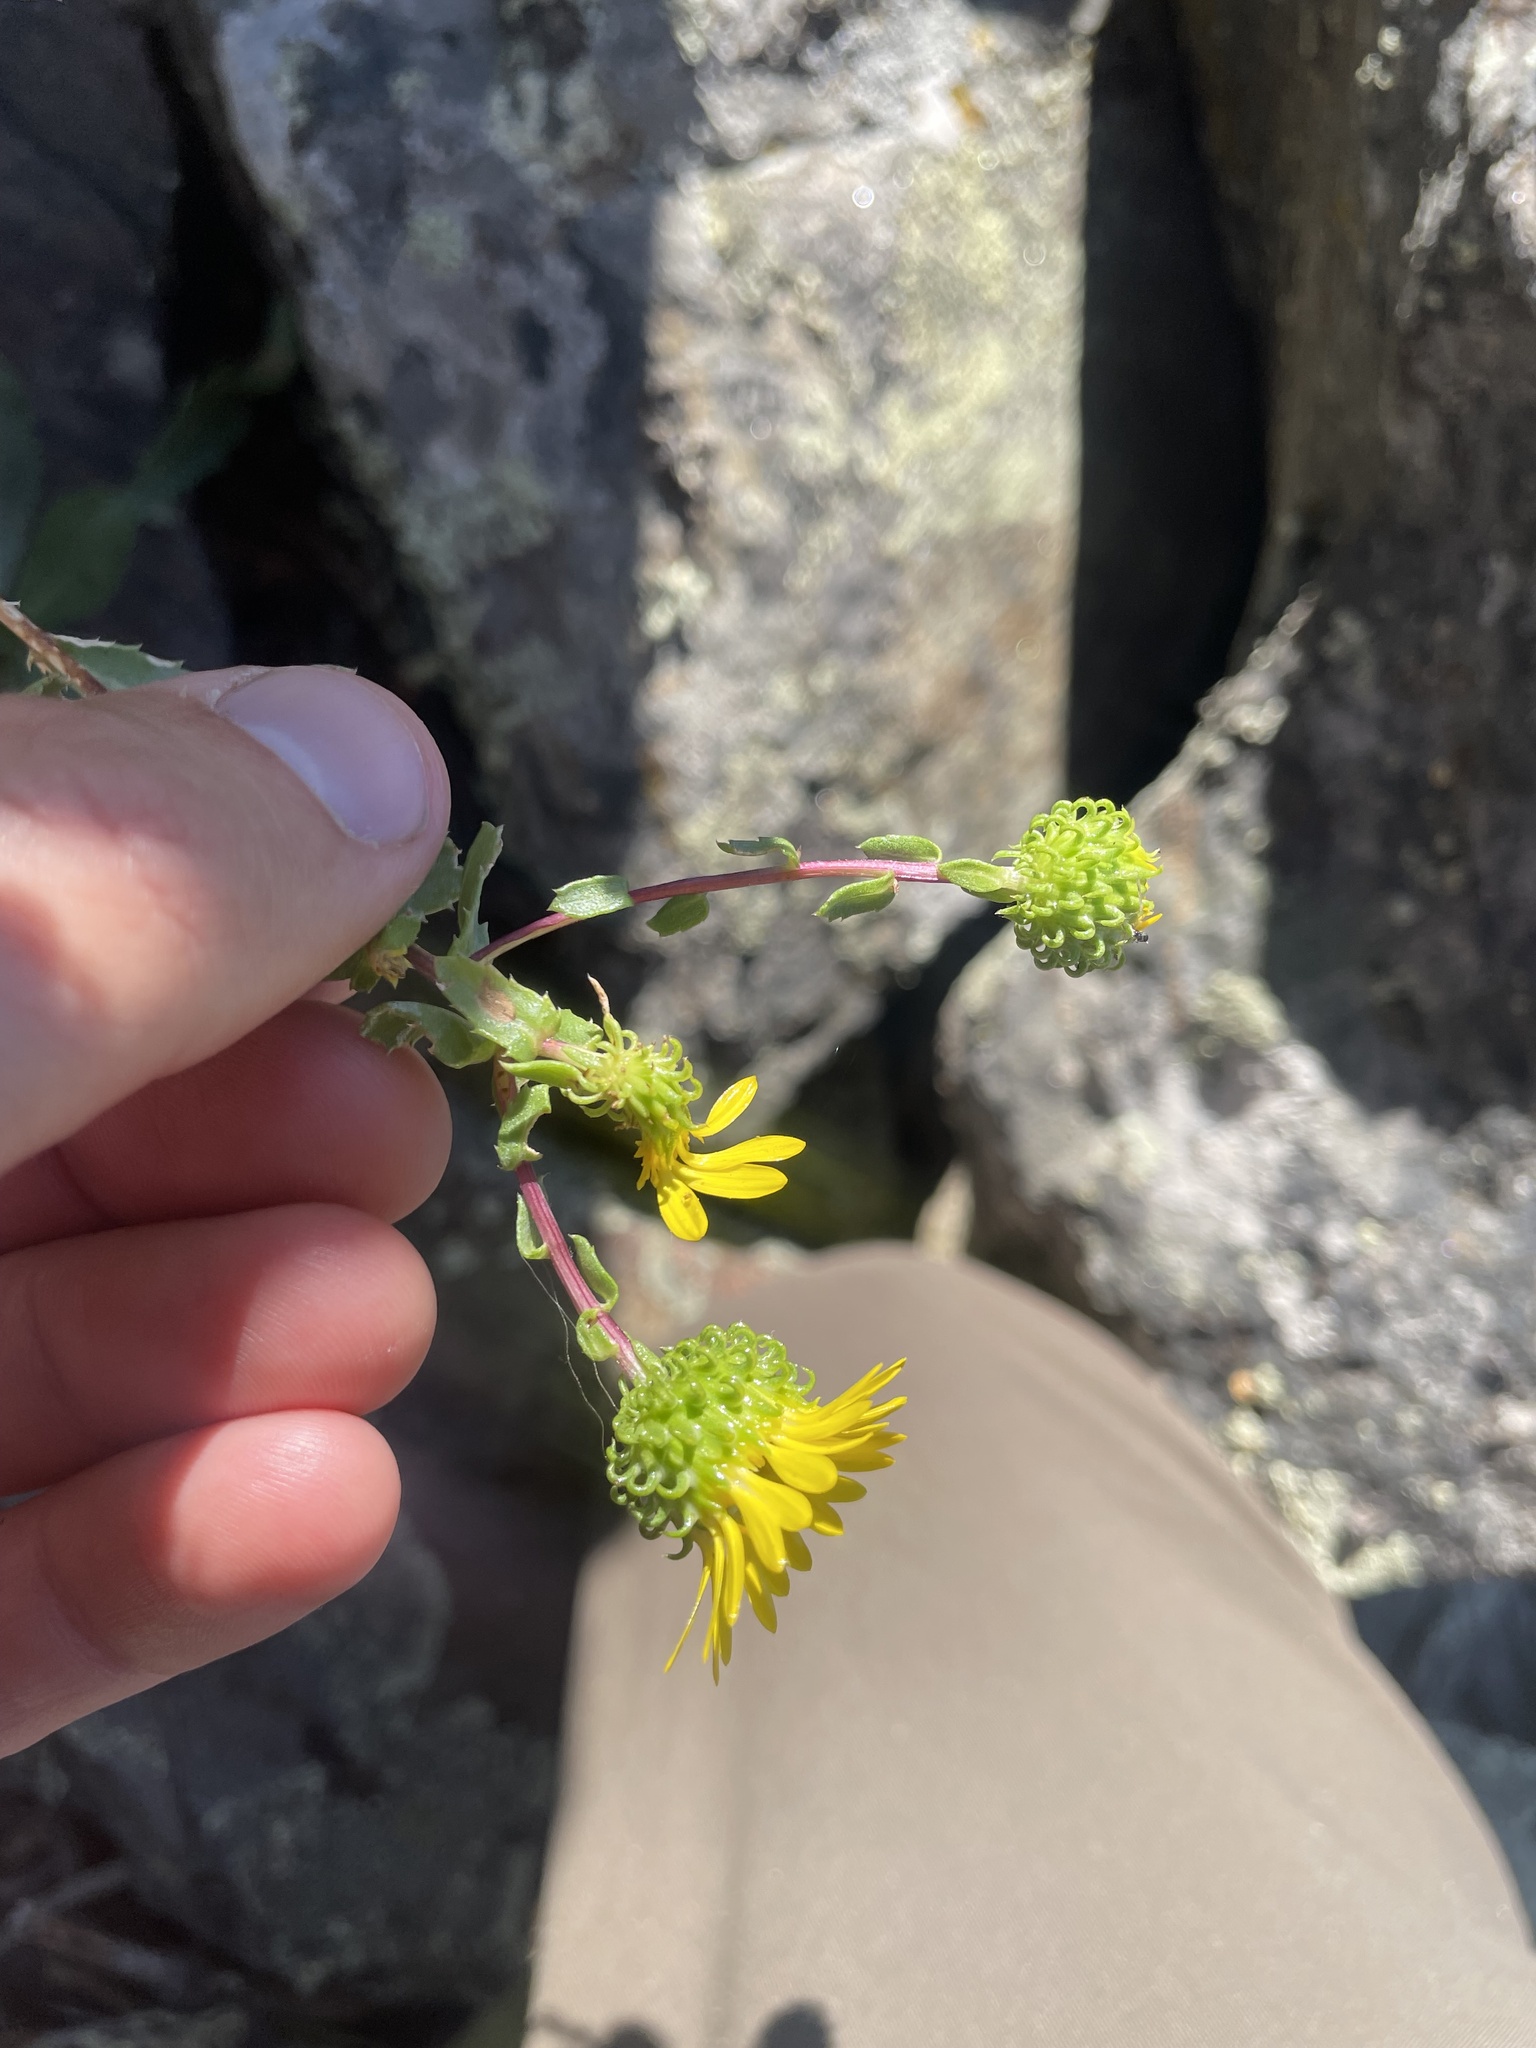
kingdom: Plantae
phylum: Tracheophyta
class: Magnoliopsida
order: Asterales
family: Asteraceae
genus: Grindelia
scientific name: Grindelia subalpina
